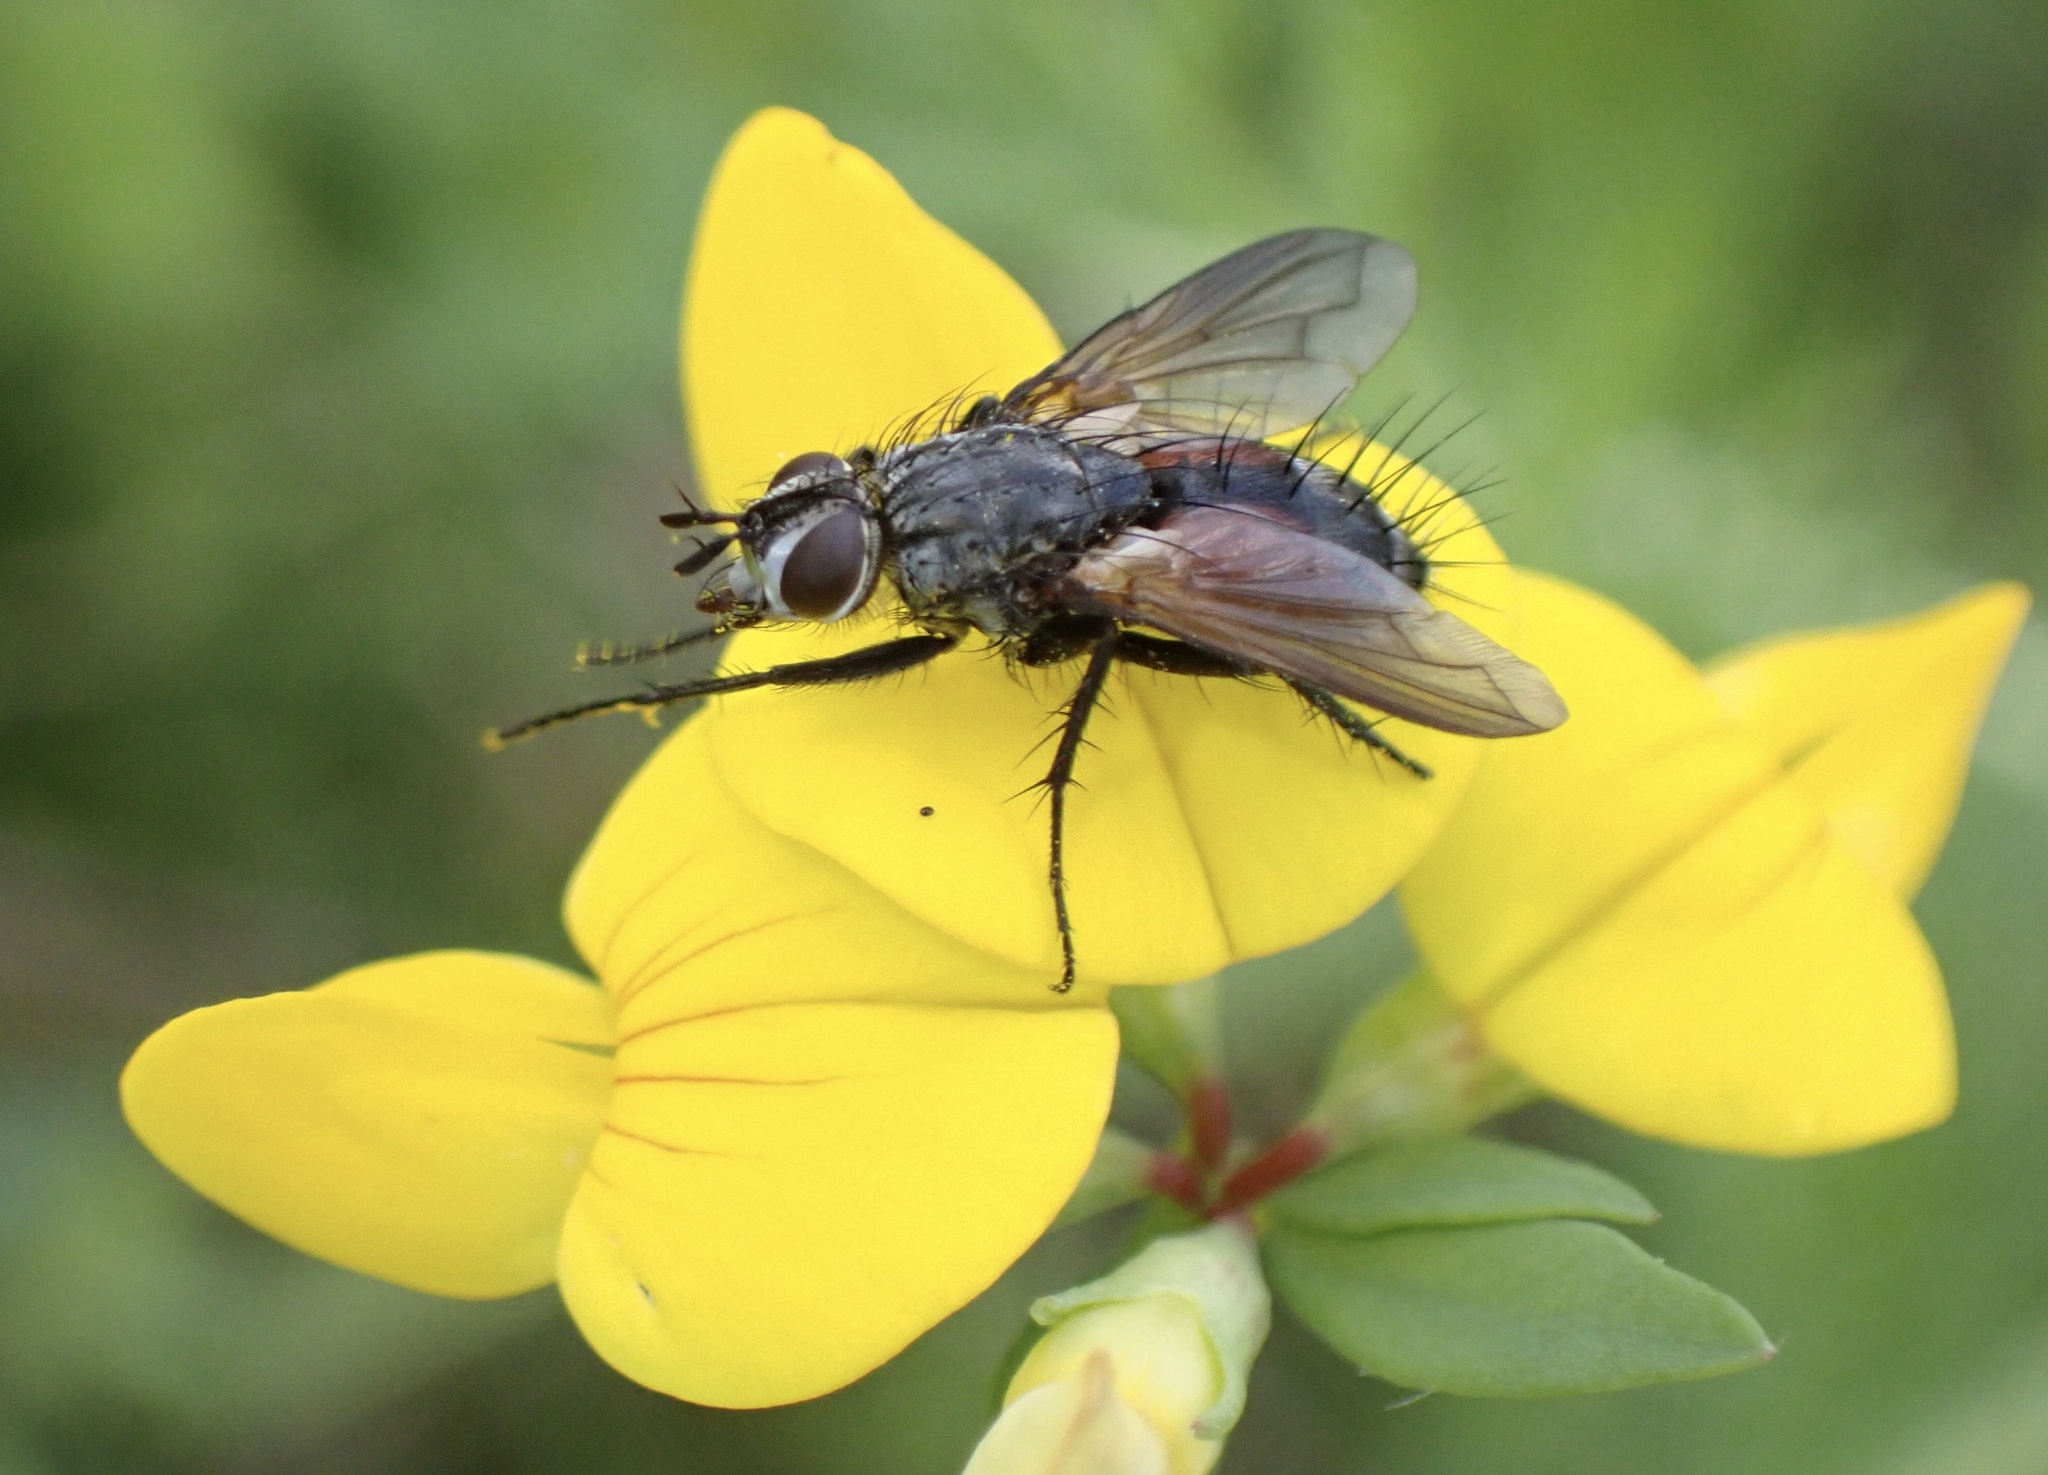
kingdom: Animalia
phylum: Arthropoda
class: Insecta
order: Diptera
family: Tachinidae
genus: Eriothrix
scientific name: Eriothrix rufomaculatus
